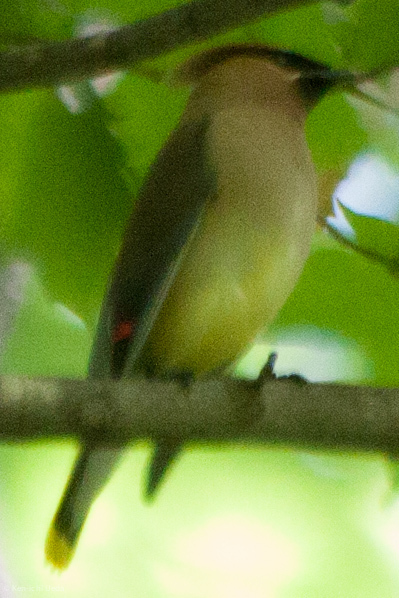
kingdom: Animalia
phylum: Chordata
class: Aves
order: Passeriformes
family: Bombycillidae
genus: Bombycilla
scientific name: Bombycilla cedrorum
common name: Cedar waxwing
